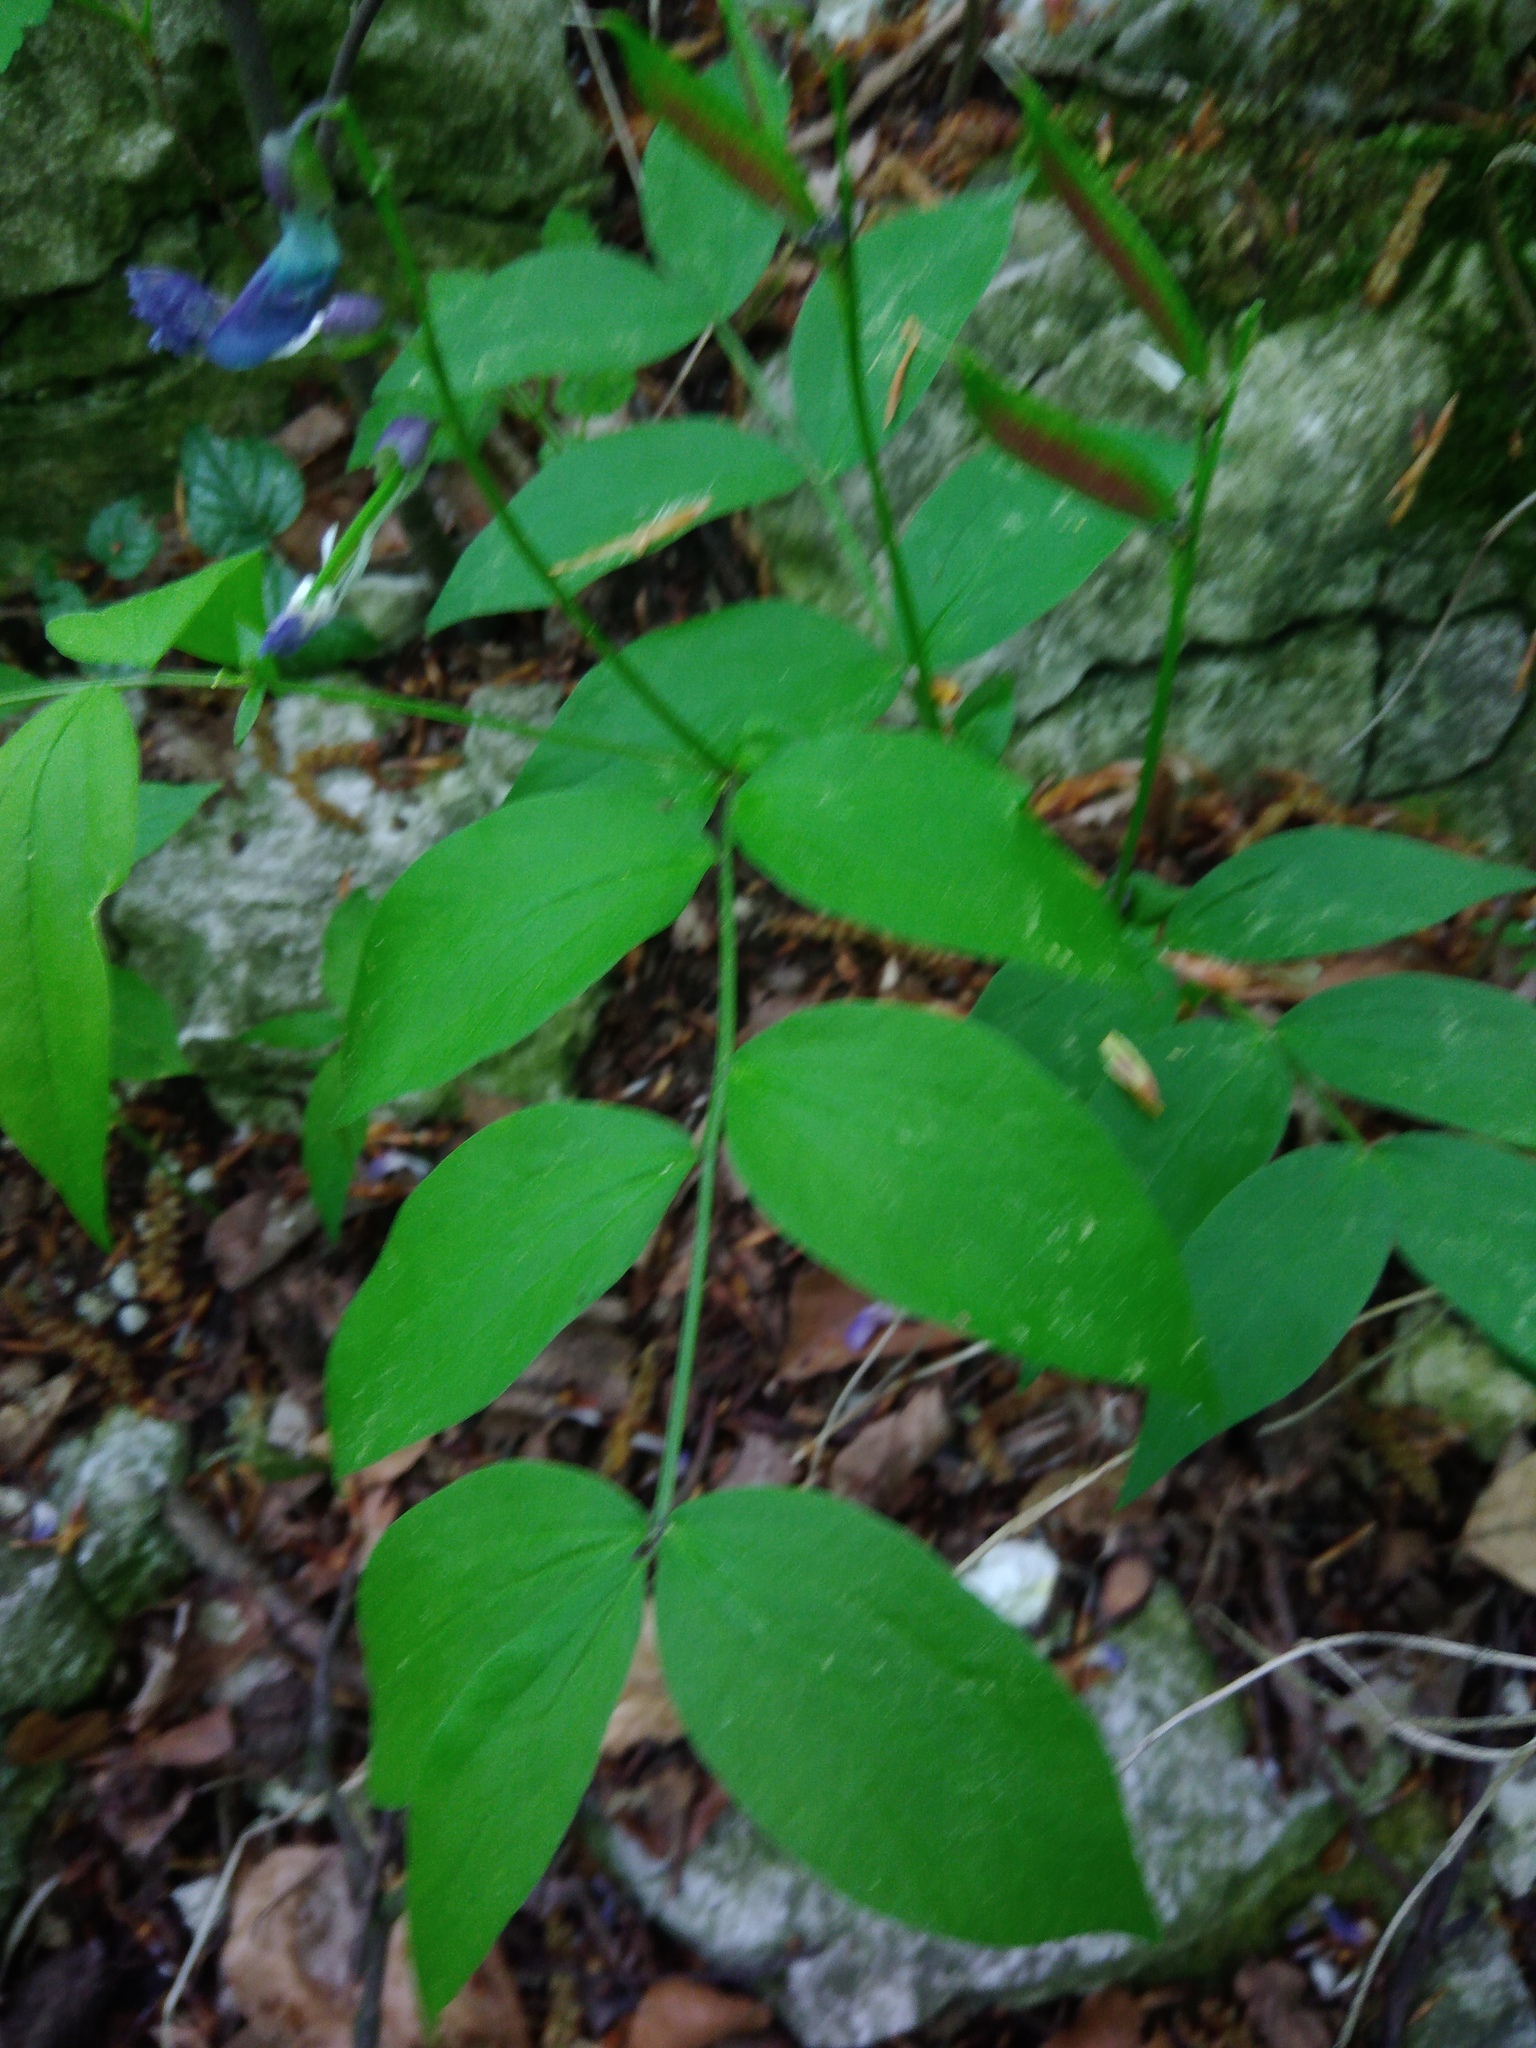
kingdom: Plantae
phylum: Tracheophyta
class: Magnoliopsida
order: Fabales
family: Fabaceae
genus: Lathyrus
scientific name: Lathyrus vernus
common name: Spring pea
